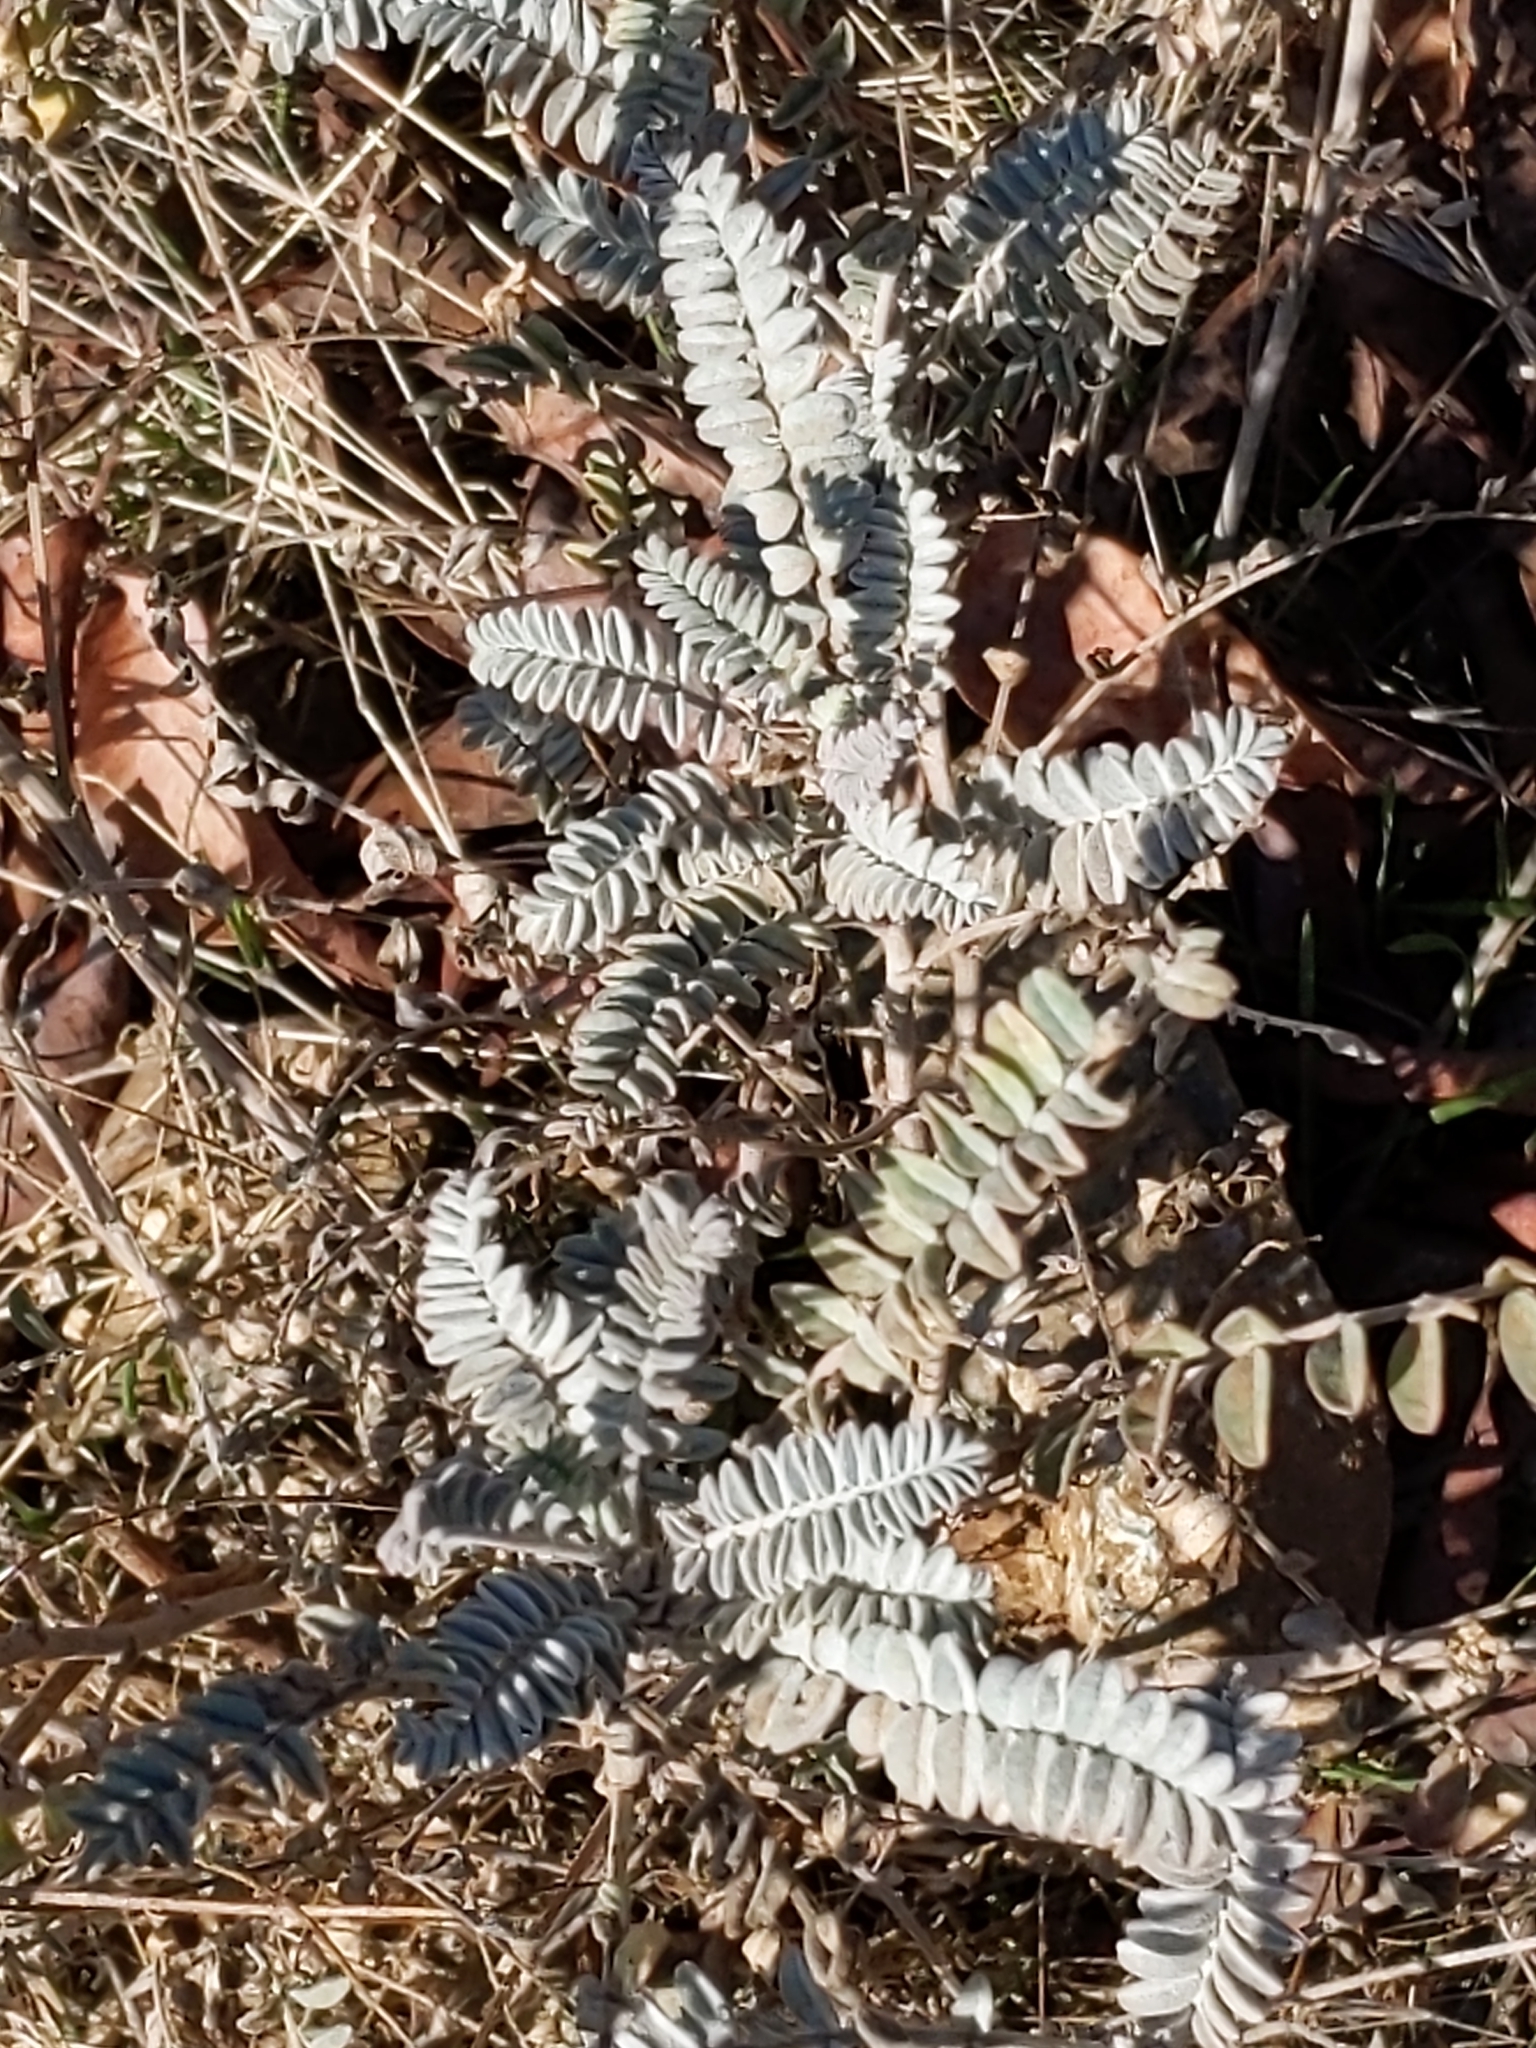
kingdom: Plantae
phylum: Tracheophyta
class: Magnoliopsida
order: Fabales
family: Fabaceae
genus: Astragalus
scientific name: Astragalus trichopodus
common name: Santa barbara milk-vetch
